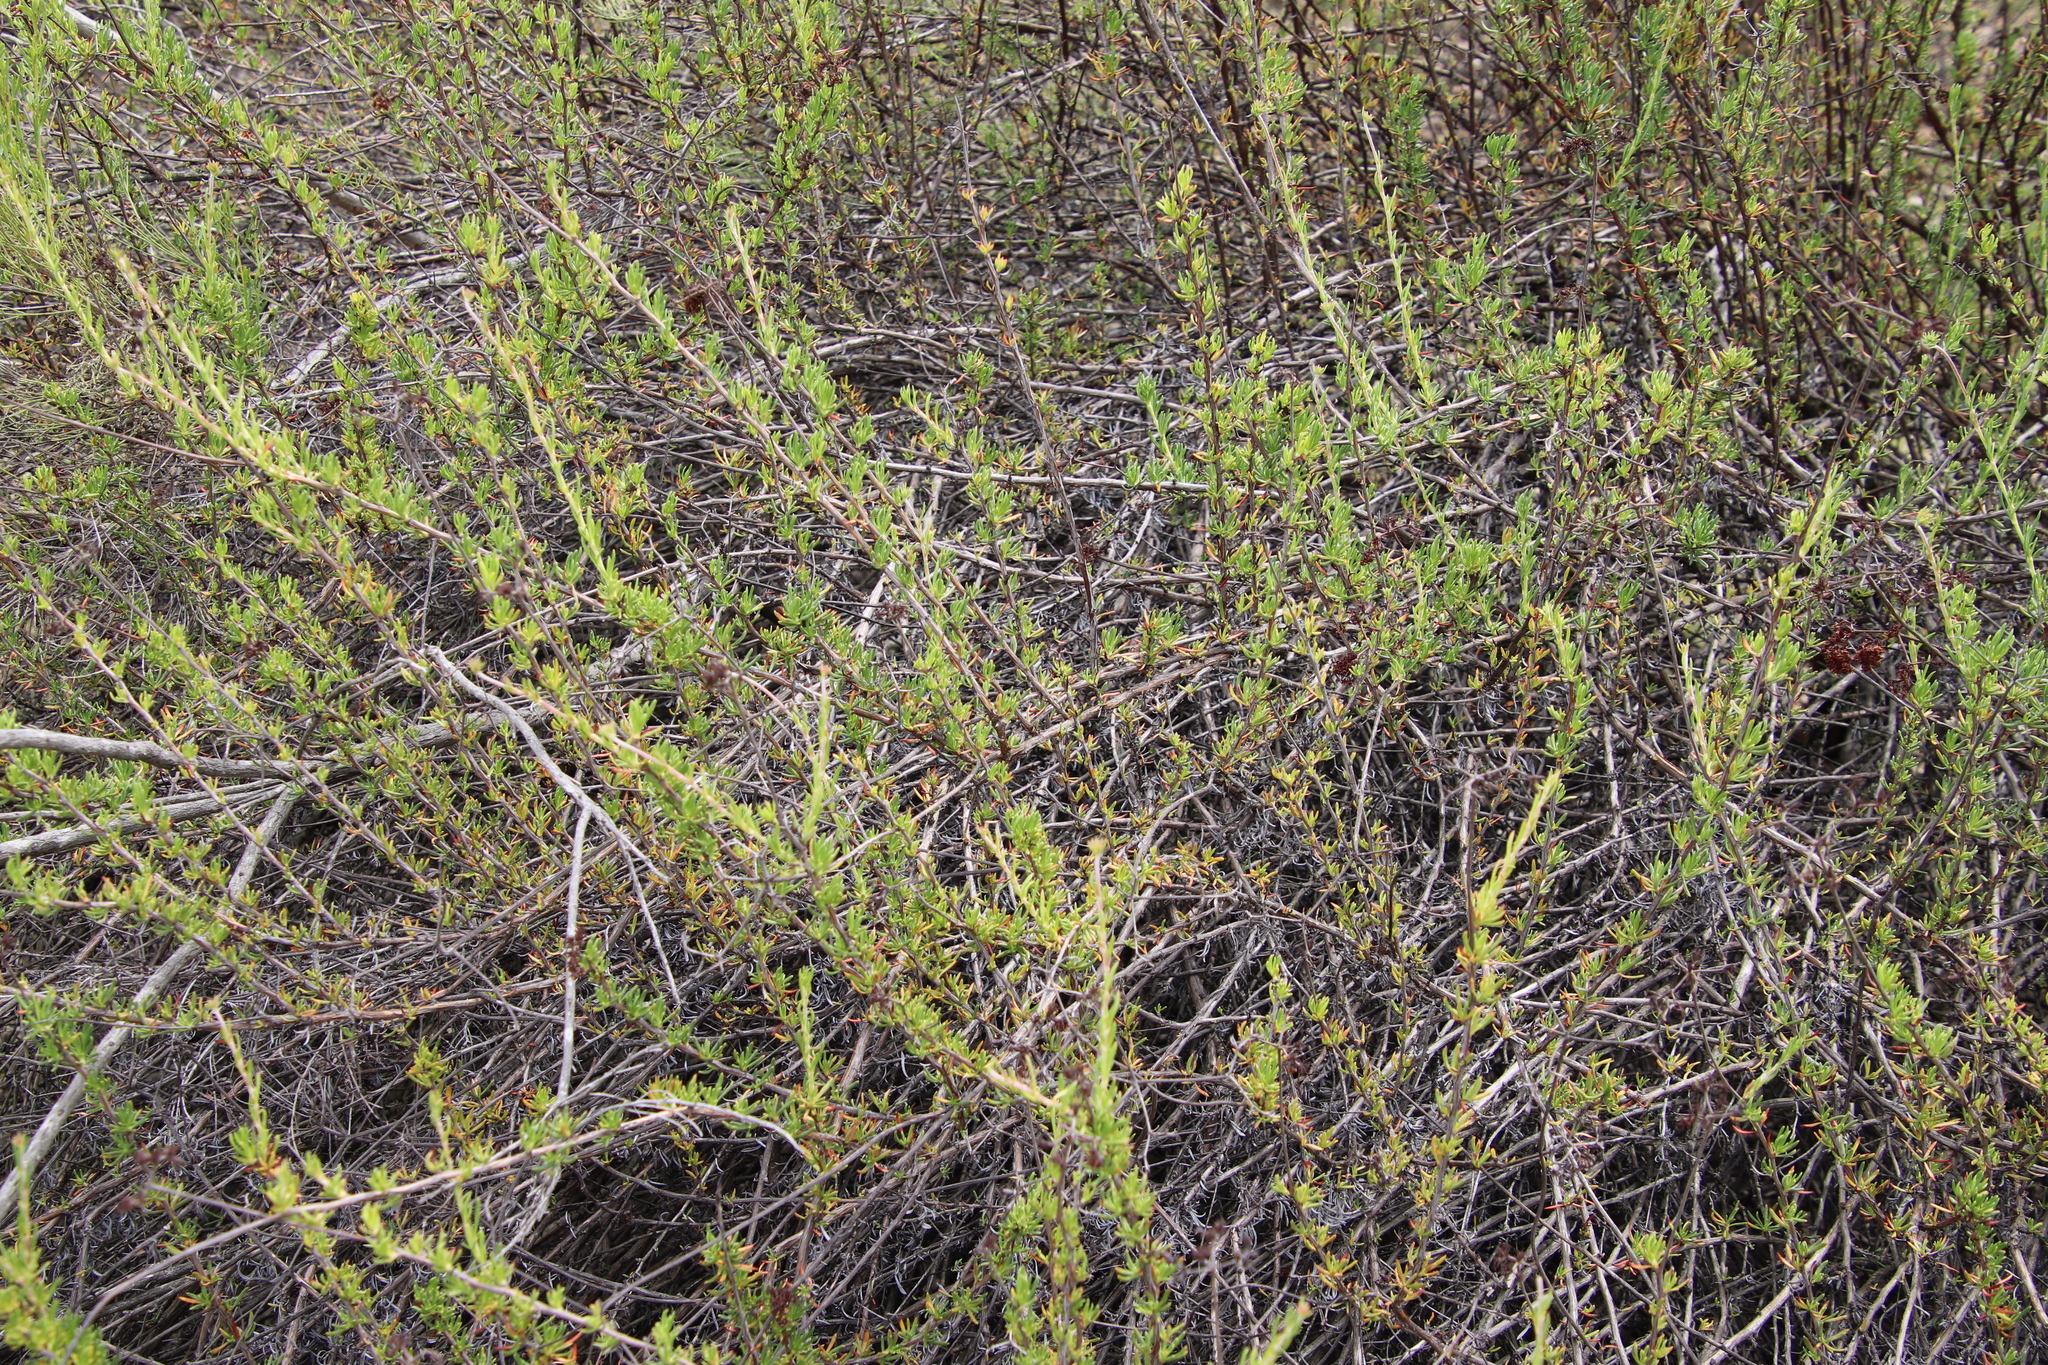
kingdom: Plantae
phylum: Tracheophyta
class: Magnoliopsida
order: Caryophyllales
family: Polygonaceae
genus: Eriogonum
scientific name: Eriogonum fasciculatum
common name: California wild buckwheat
